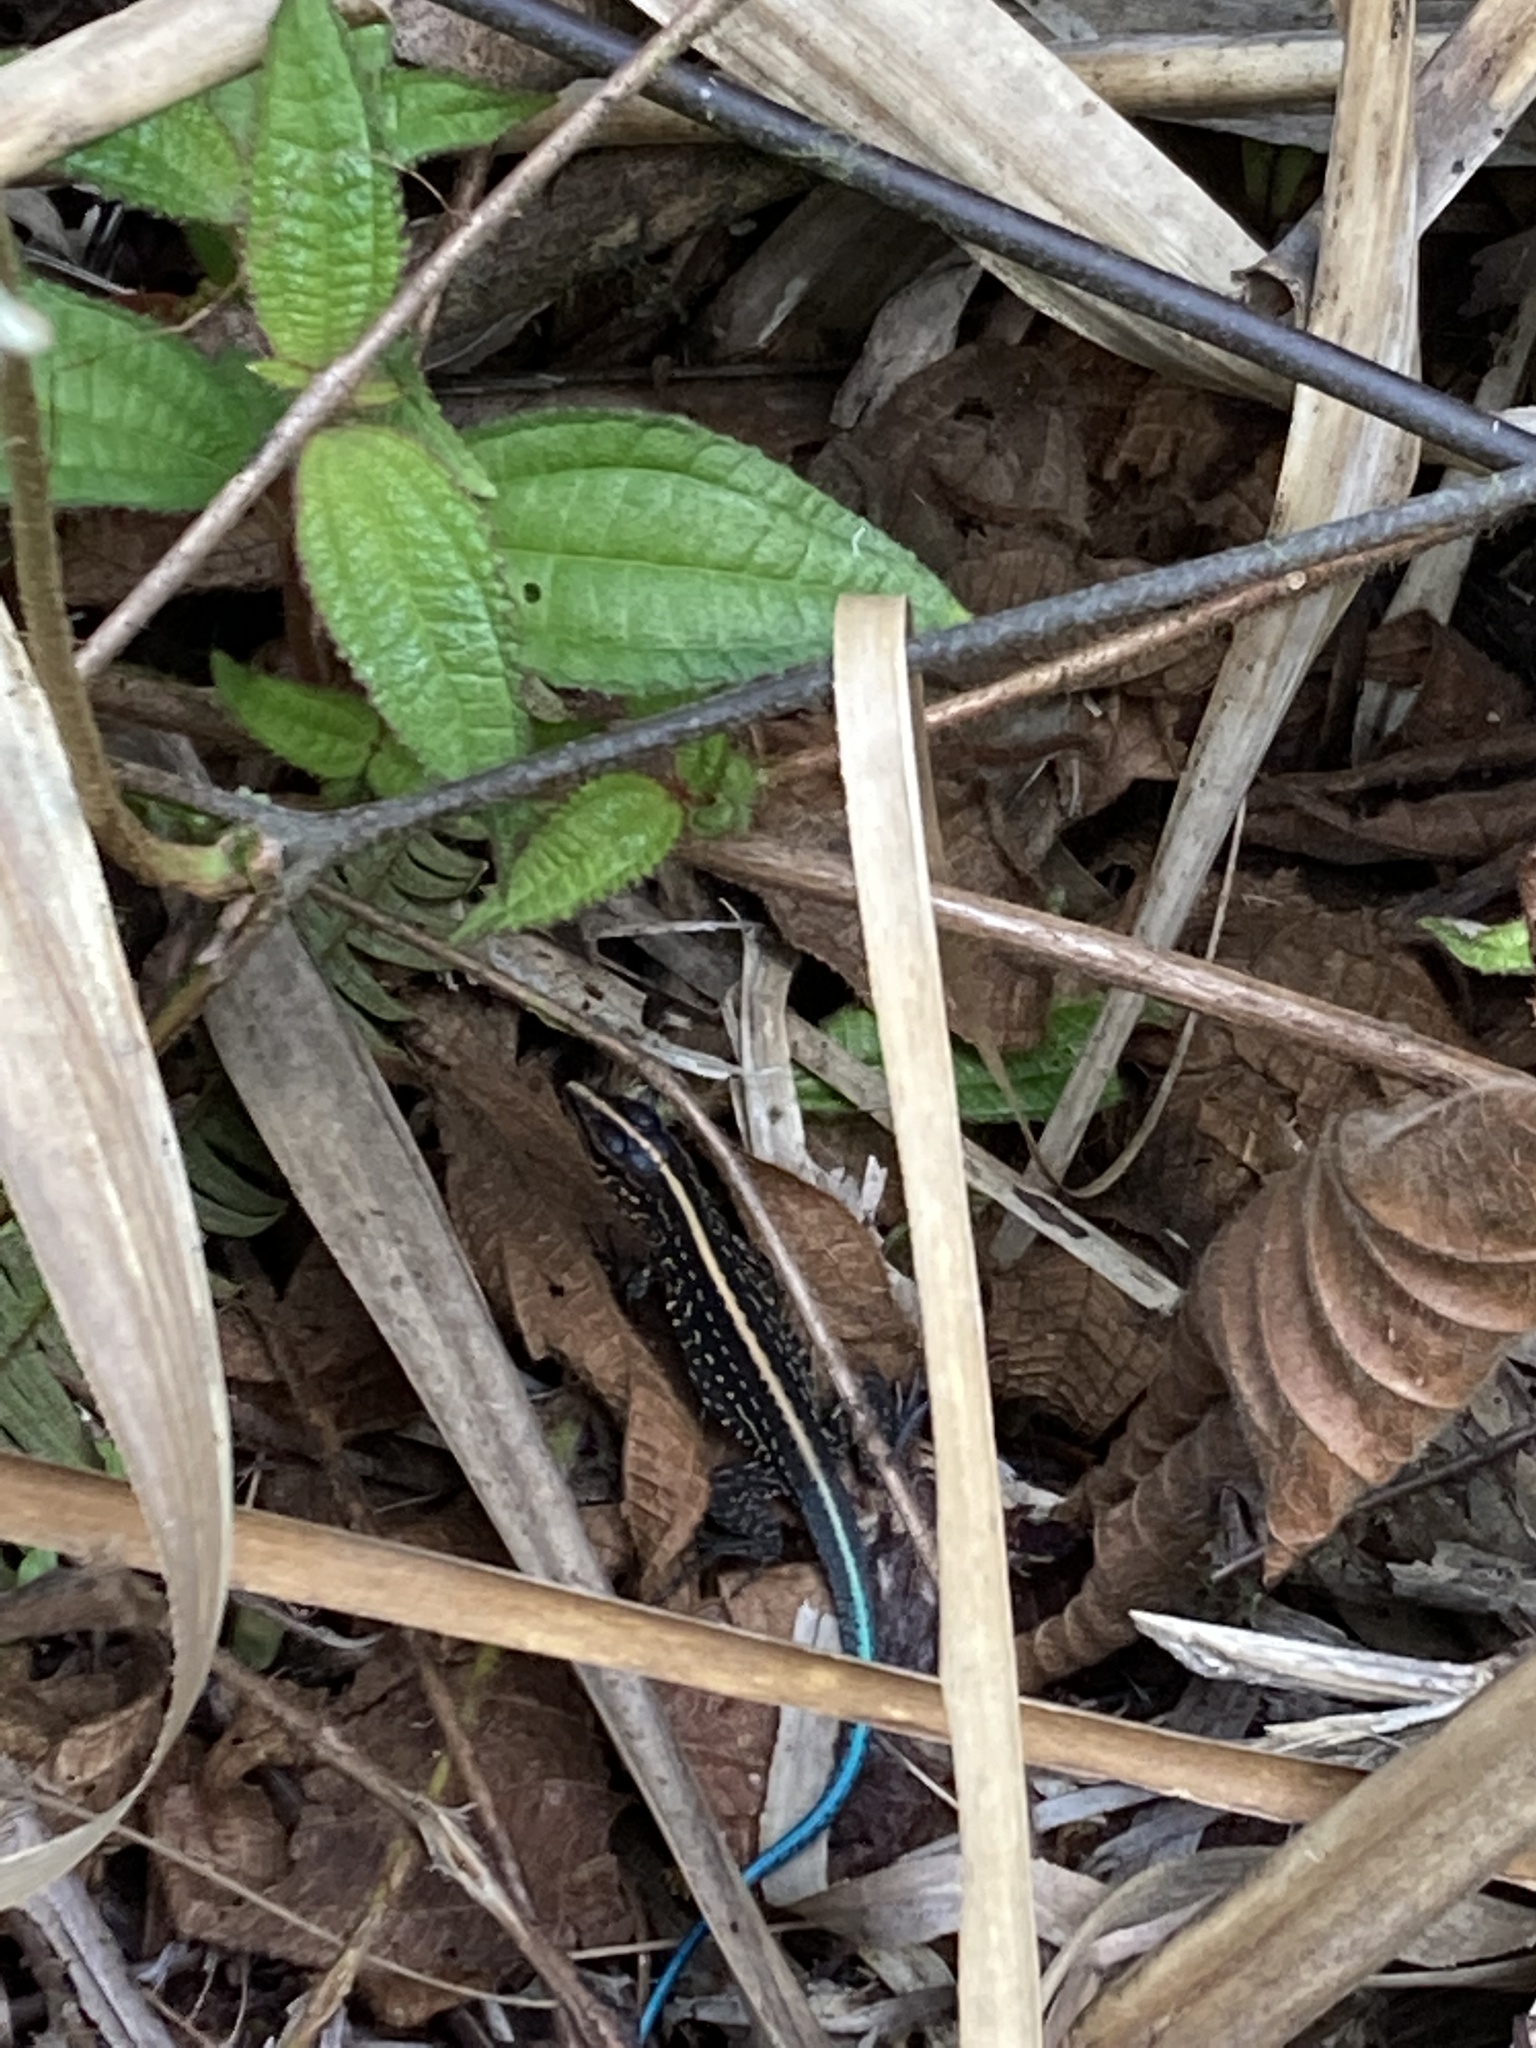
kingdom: Animalia
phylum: Chordata
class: Squamata
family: Teiidae
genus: Holcosus
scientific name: Holcosus festivus
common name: Middle american ameiva
